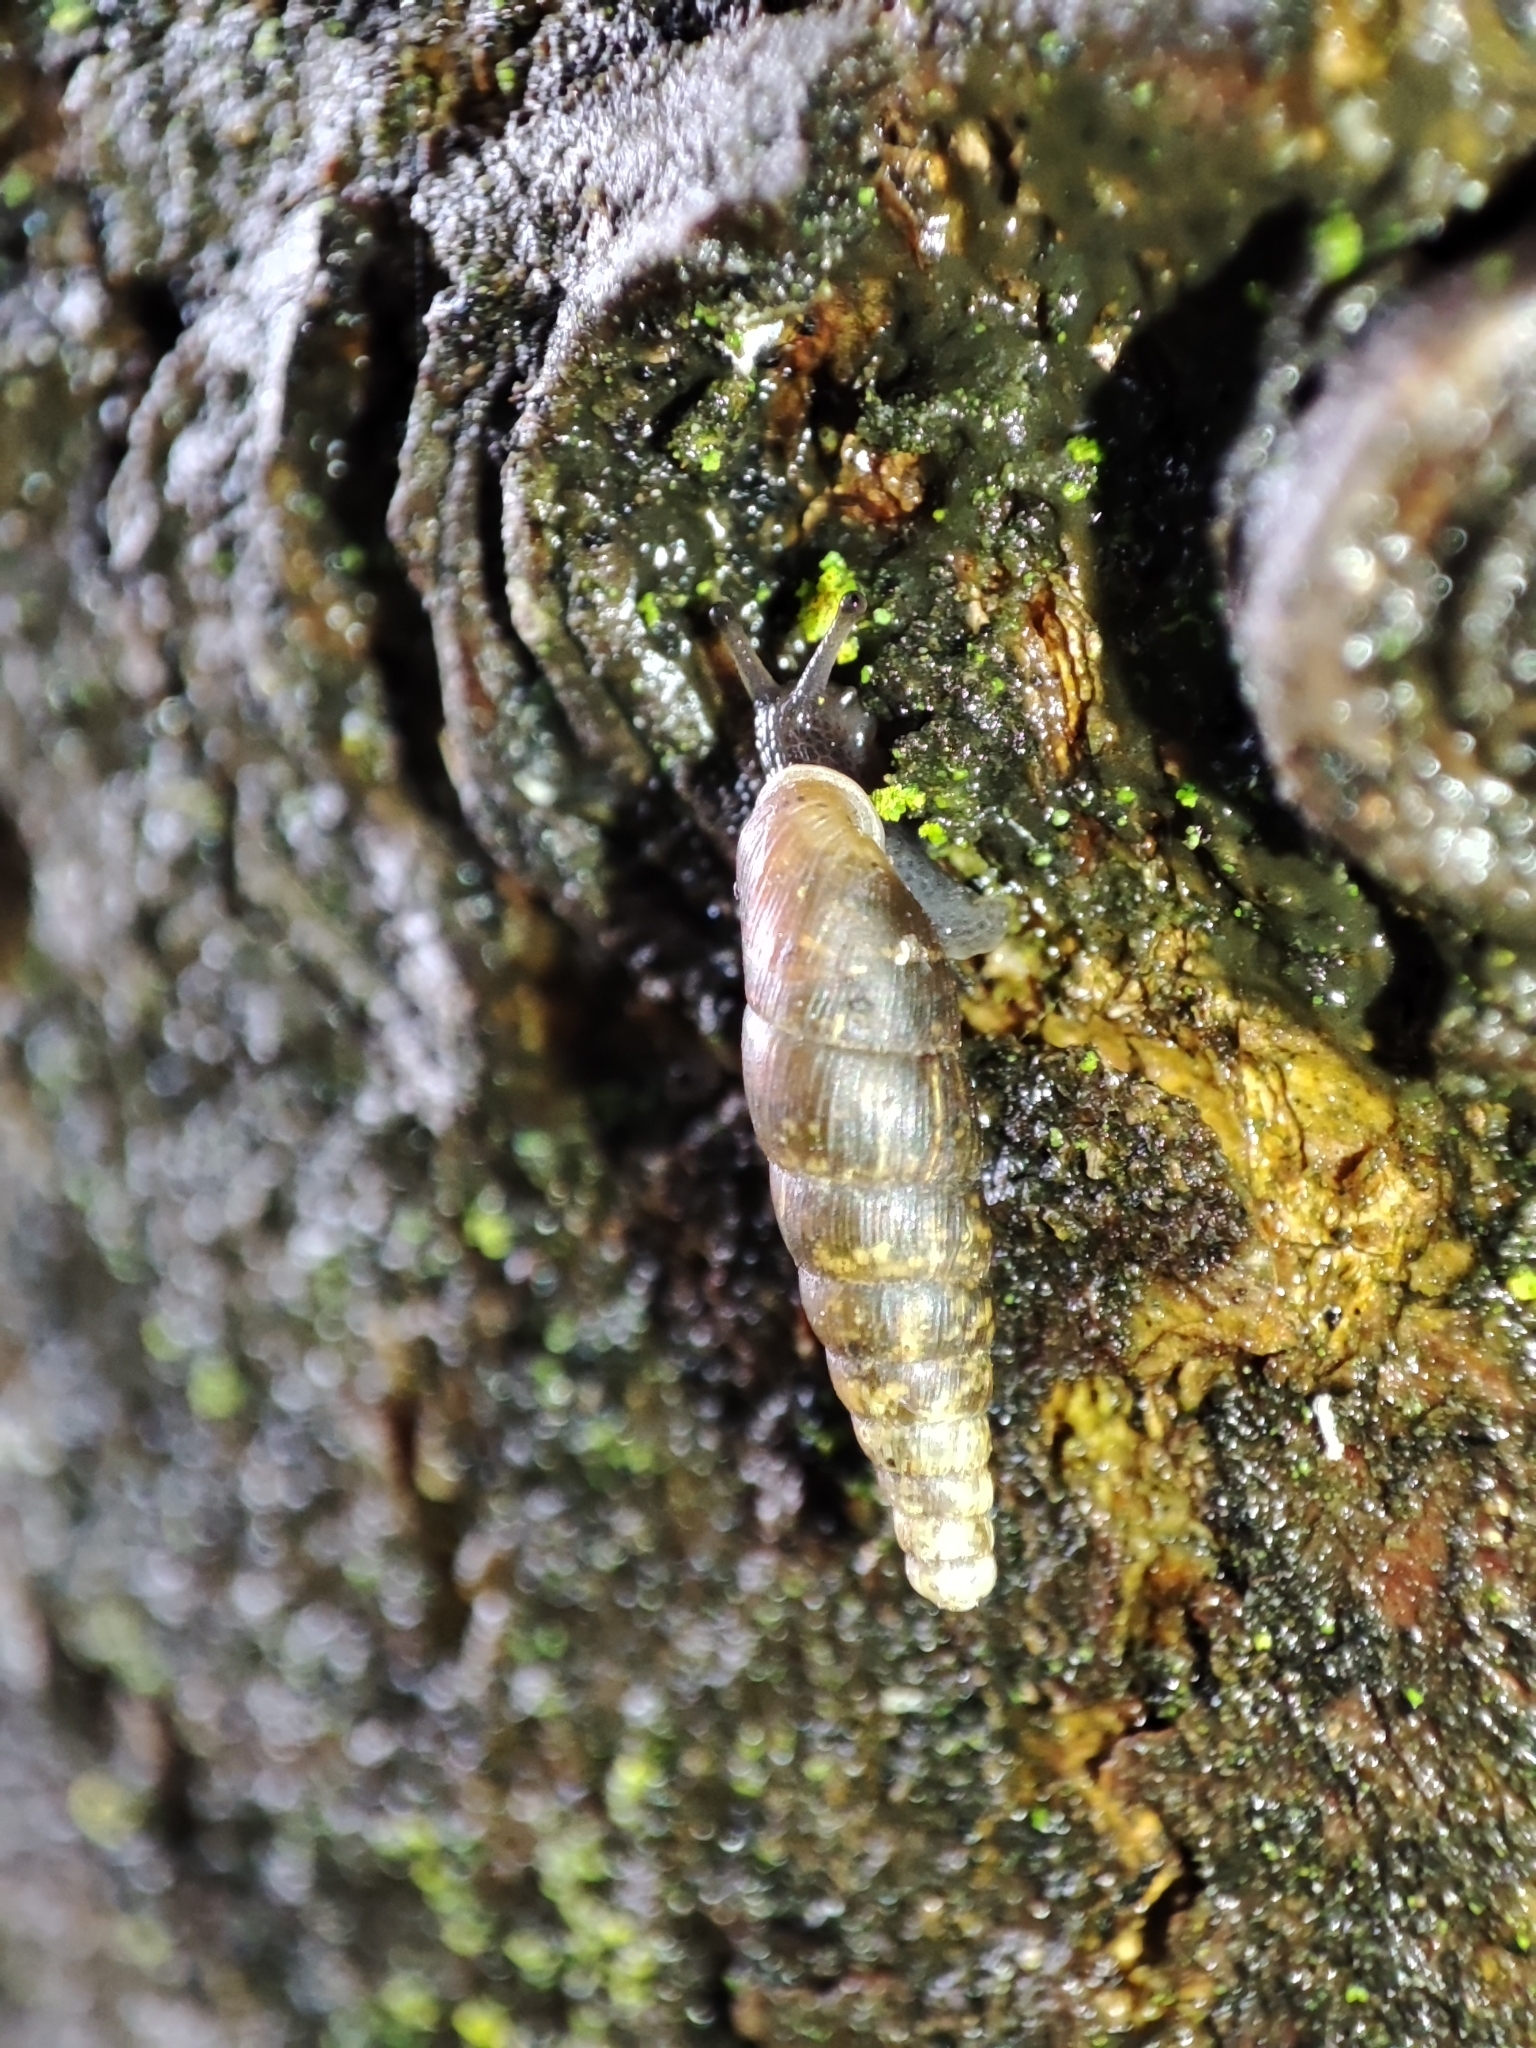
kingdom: Animalia
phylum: Mollusca
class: Gastropoda
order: Stylommatophora
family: Clausiliidae
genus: Cochlodina
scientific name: Cochlodina orthostoma
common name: Straightmouth door snail
